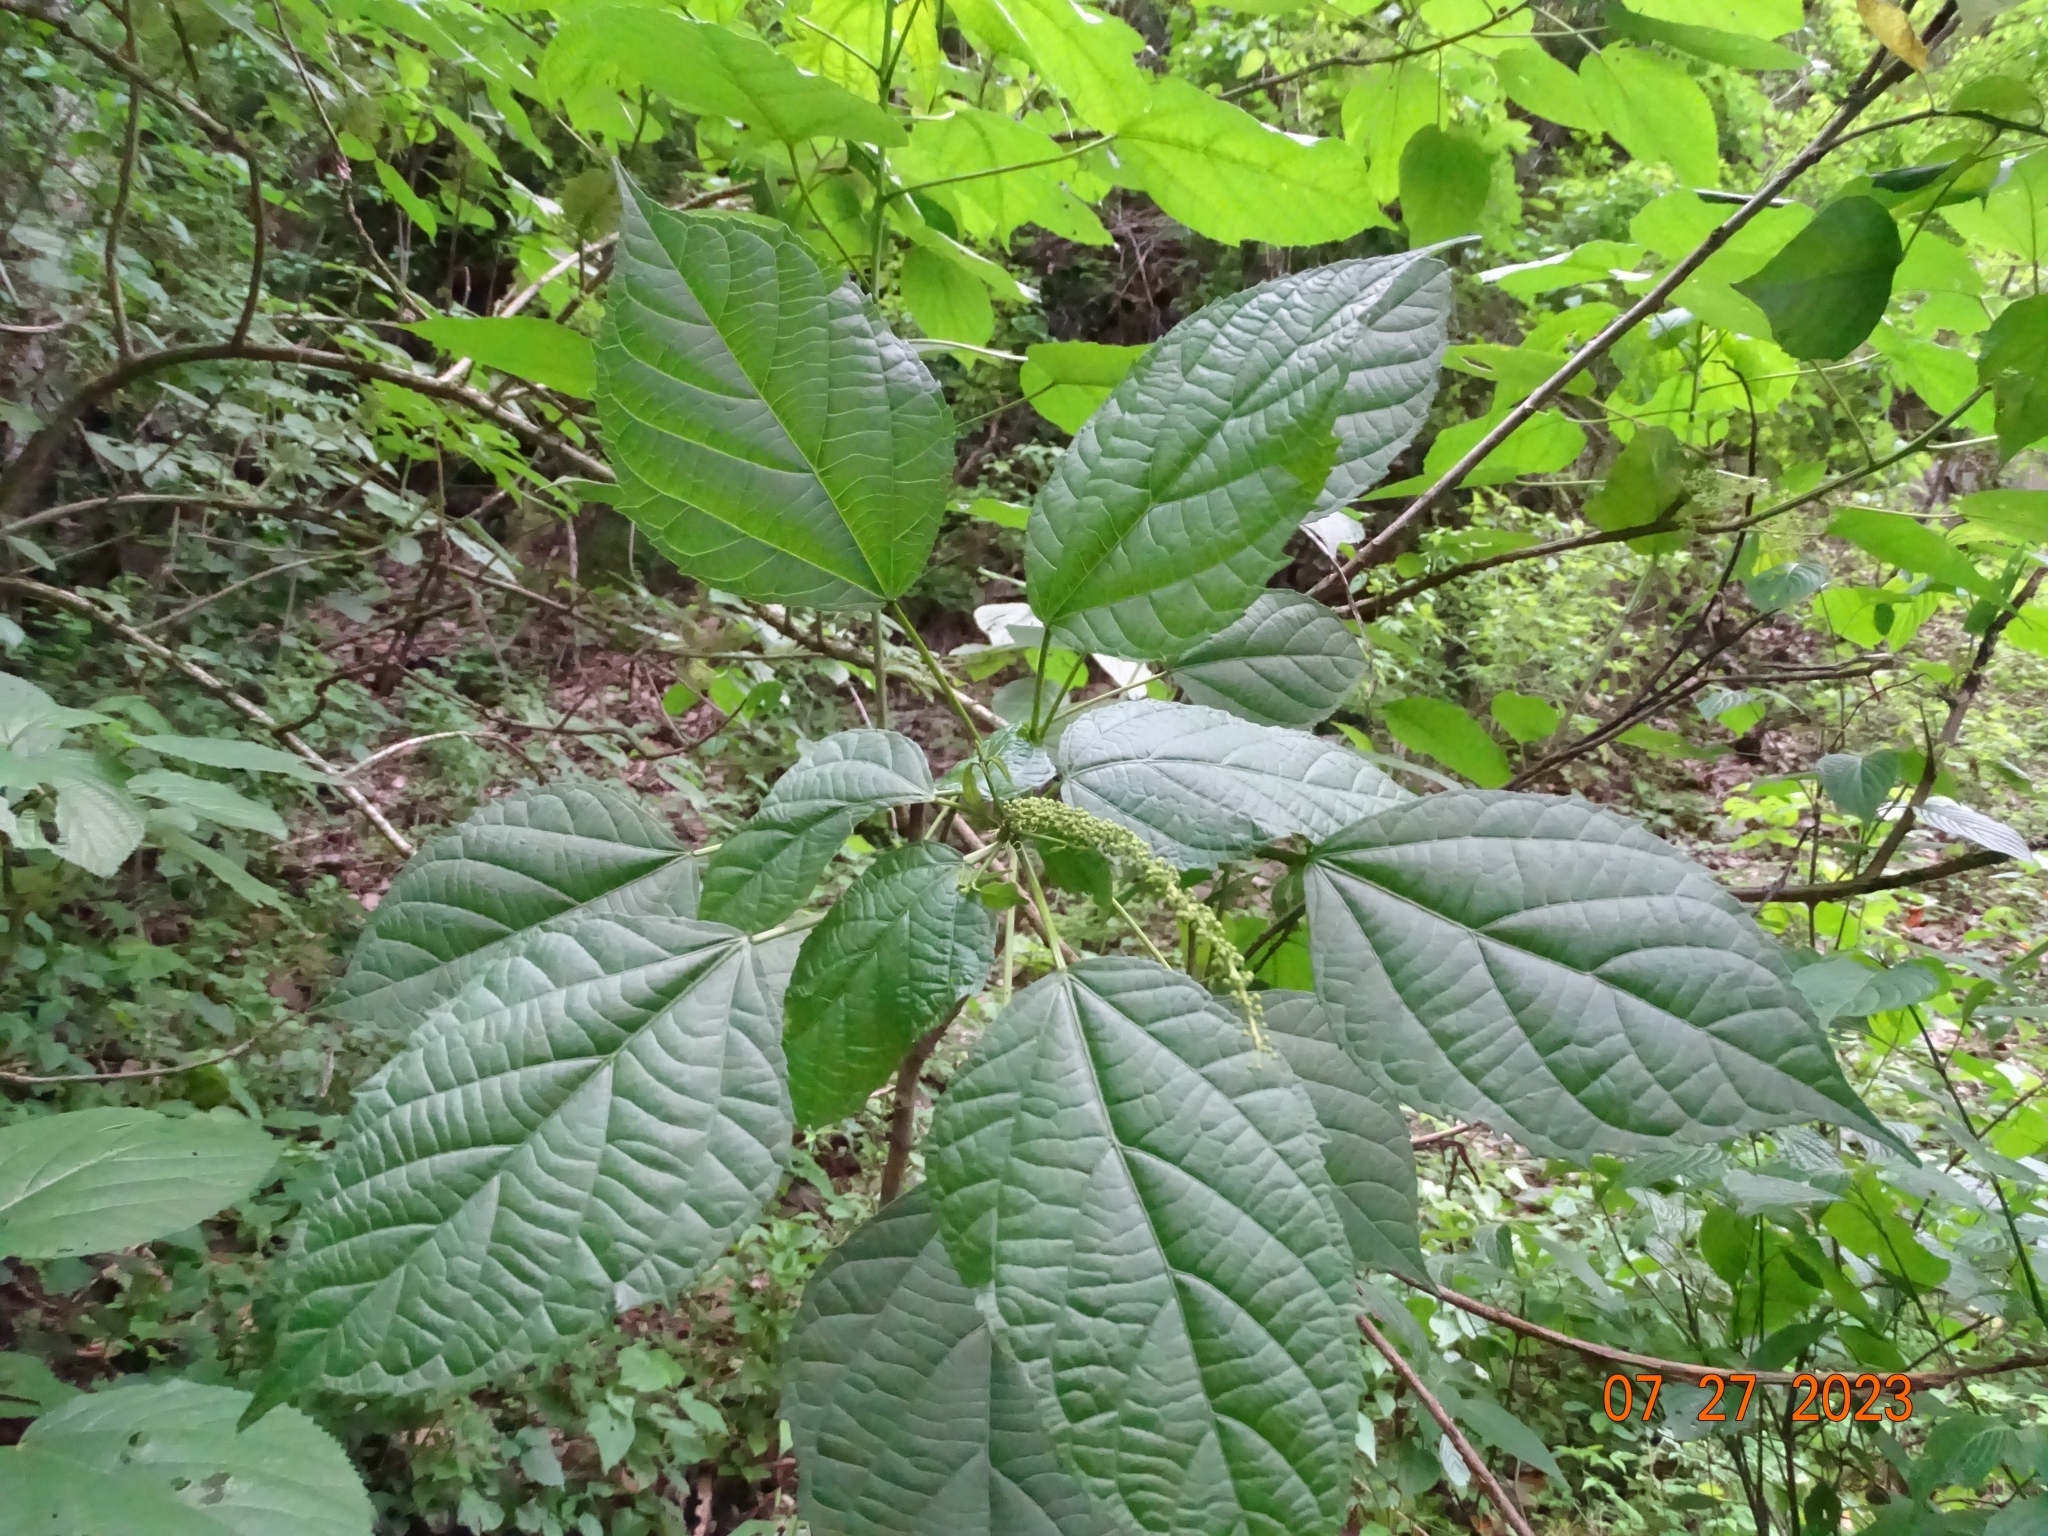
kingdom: Plantae
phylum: Tracheophyta
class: Magnoliopsida
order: Malpighiales
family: Euphorbiaceae
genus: Croton
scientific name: Croton ynesae
